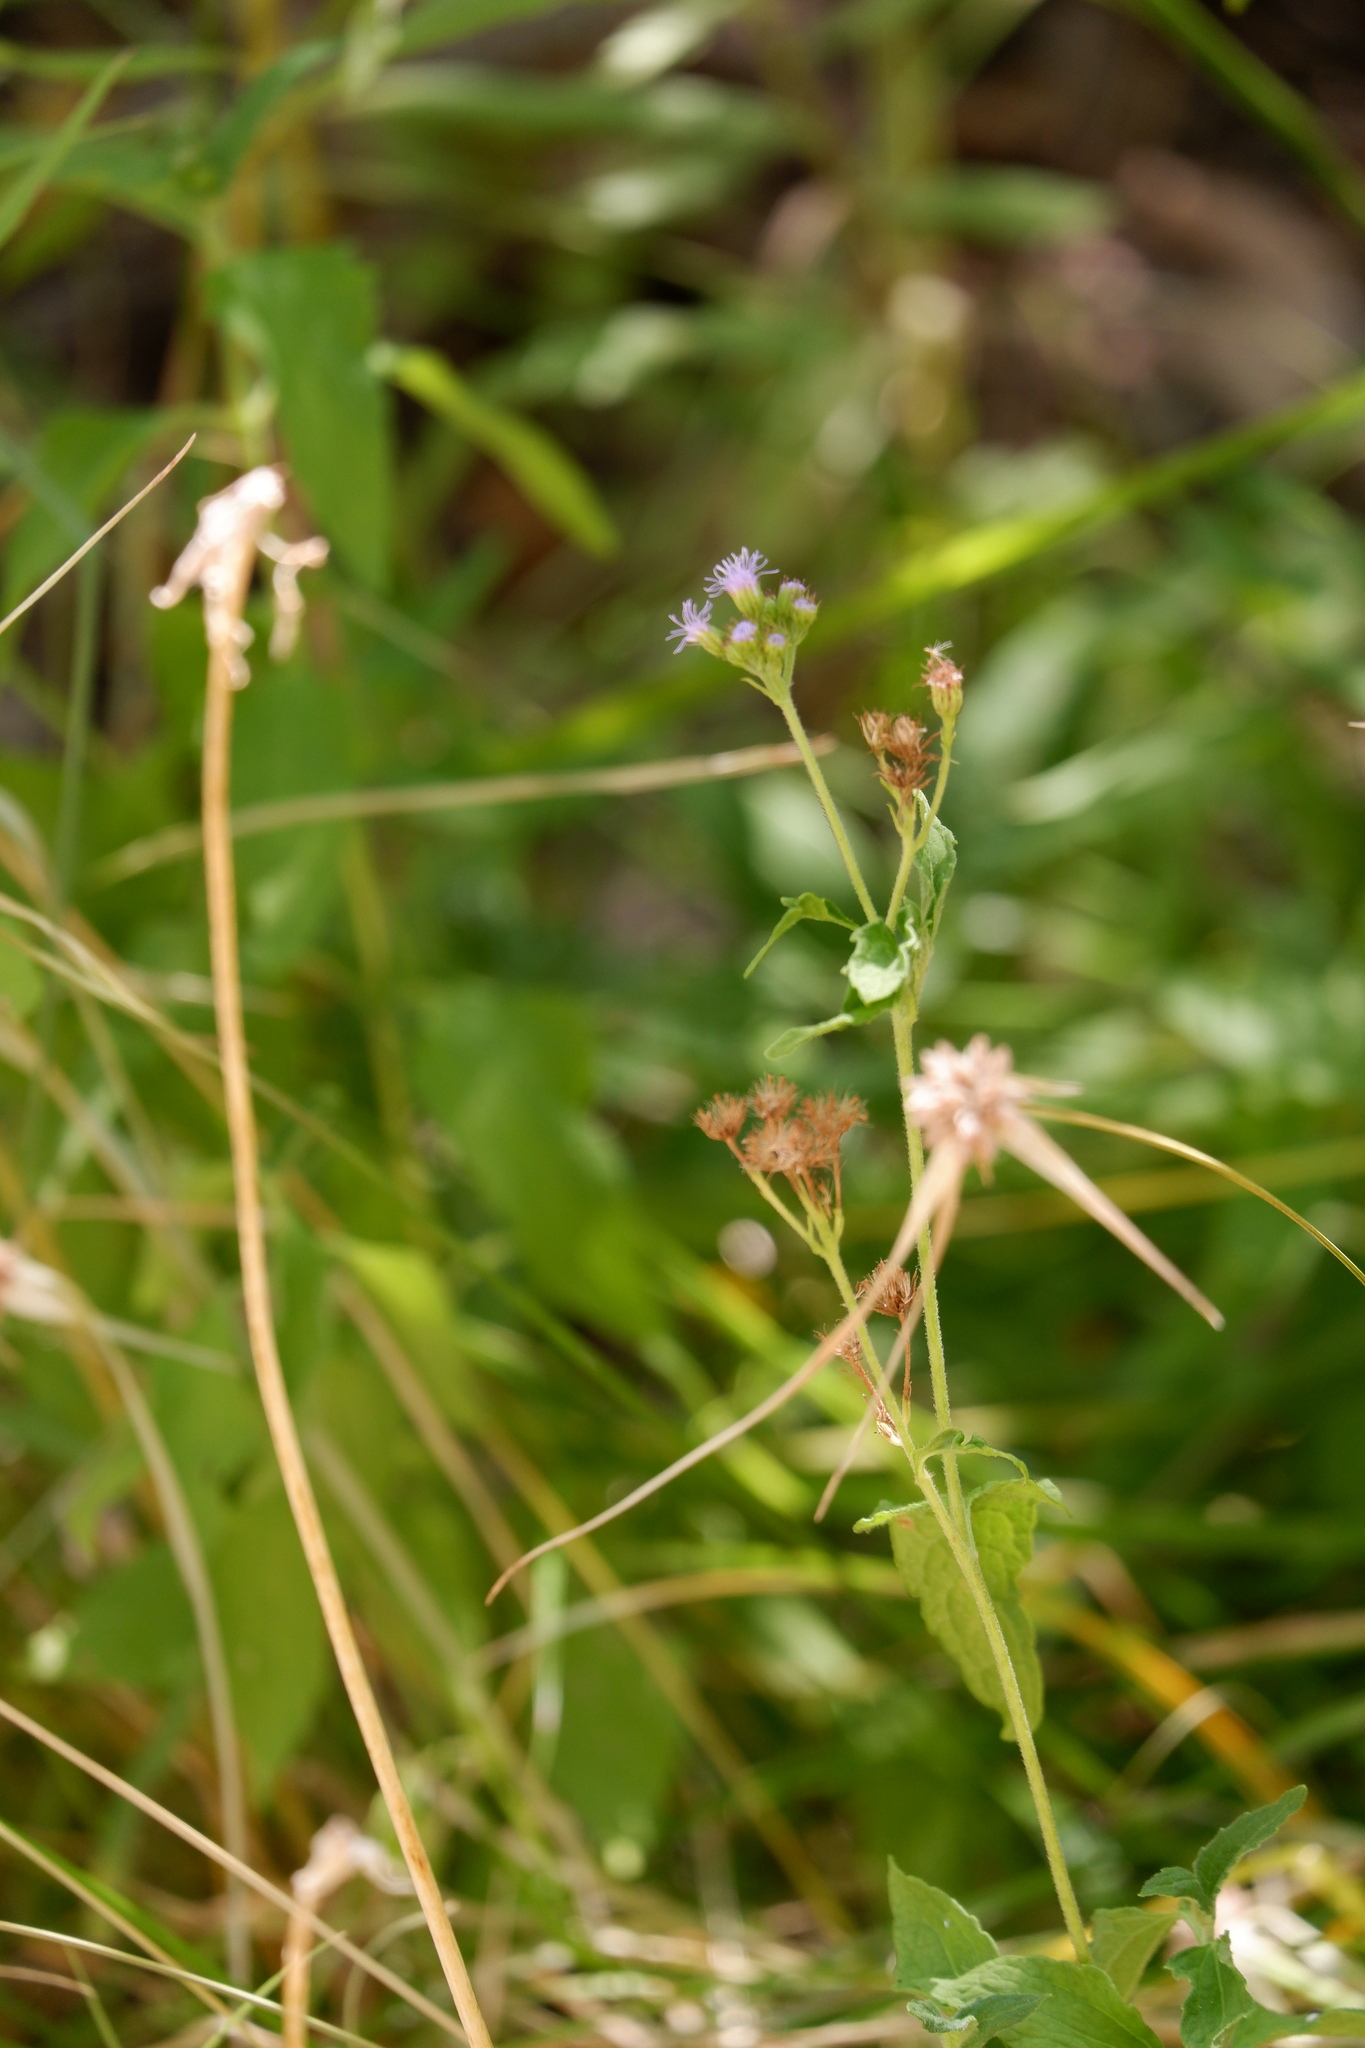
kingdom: Plantae
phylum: Tracheophyta
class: Magnoliopsida
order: Asterales
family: Asteraceae
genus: Conoclinium
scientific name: Conoclinium coelestinum
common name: Blue mistflower
